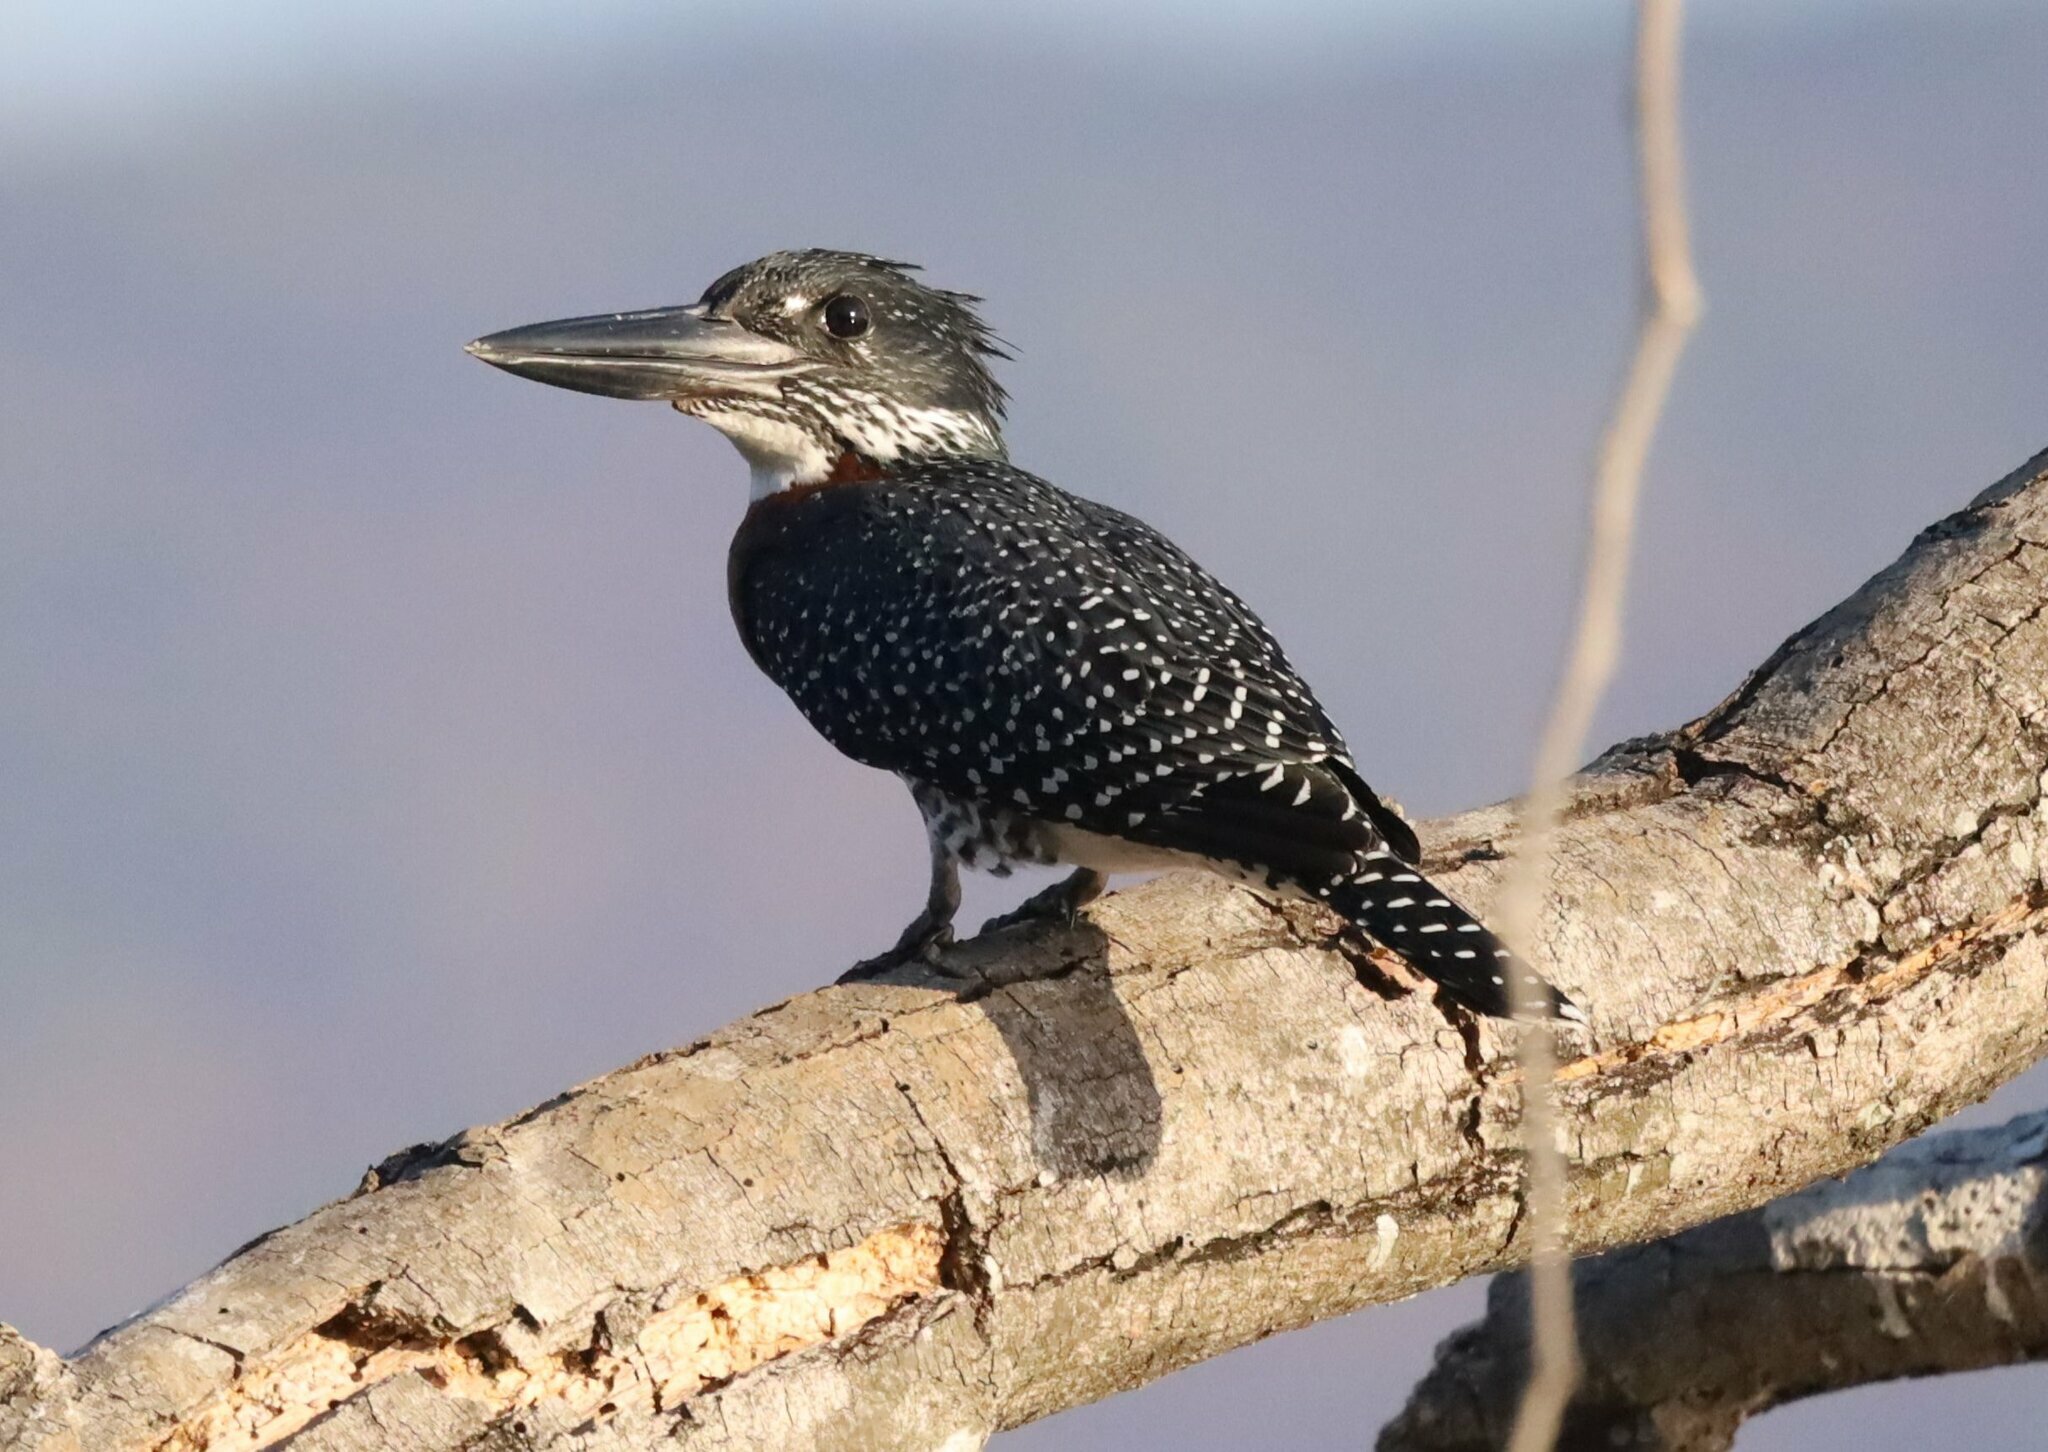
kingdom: Animalia
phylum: Chordata
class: Aves
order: Coraciiformes
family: Alcedinidae
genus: Megaceryle
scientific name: Megaceryle maxima
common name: Giant kingfisher
